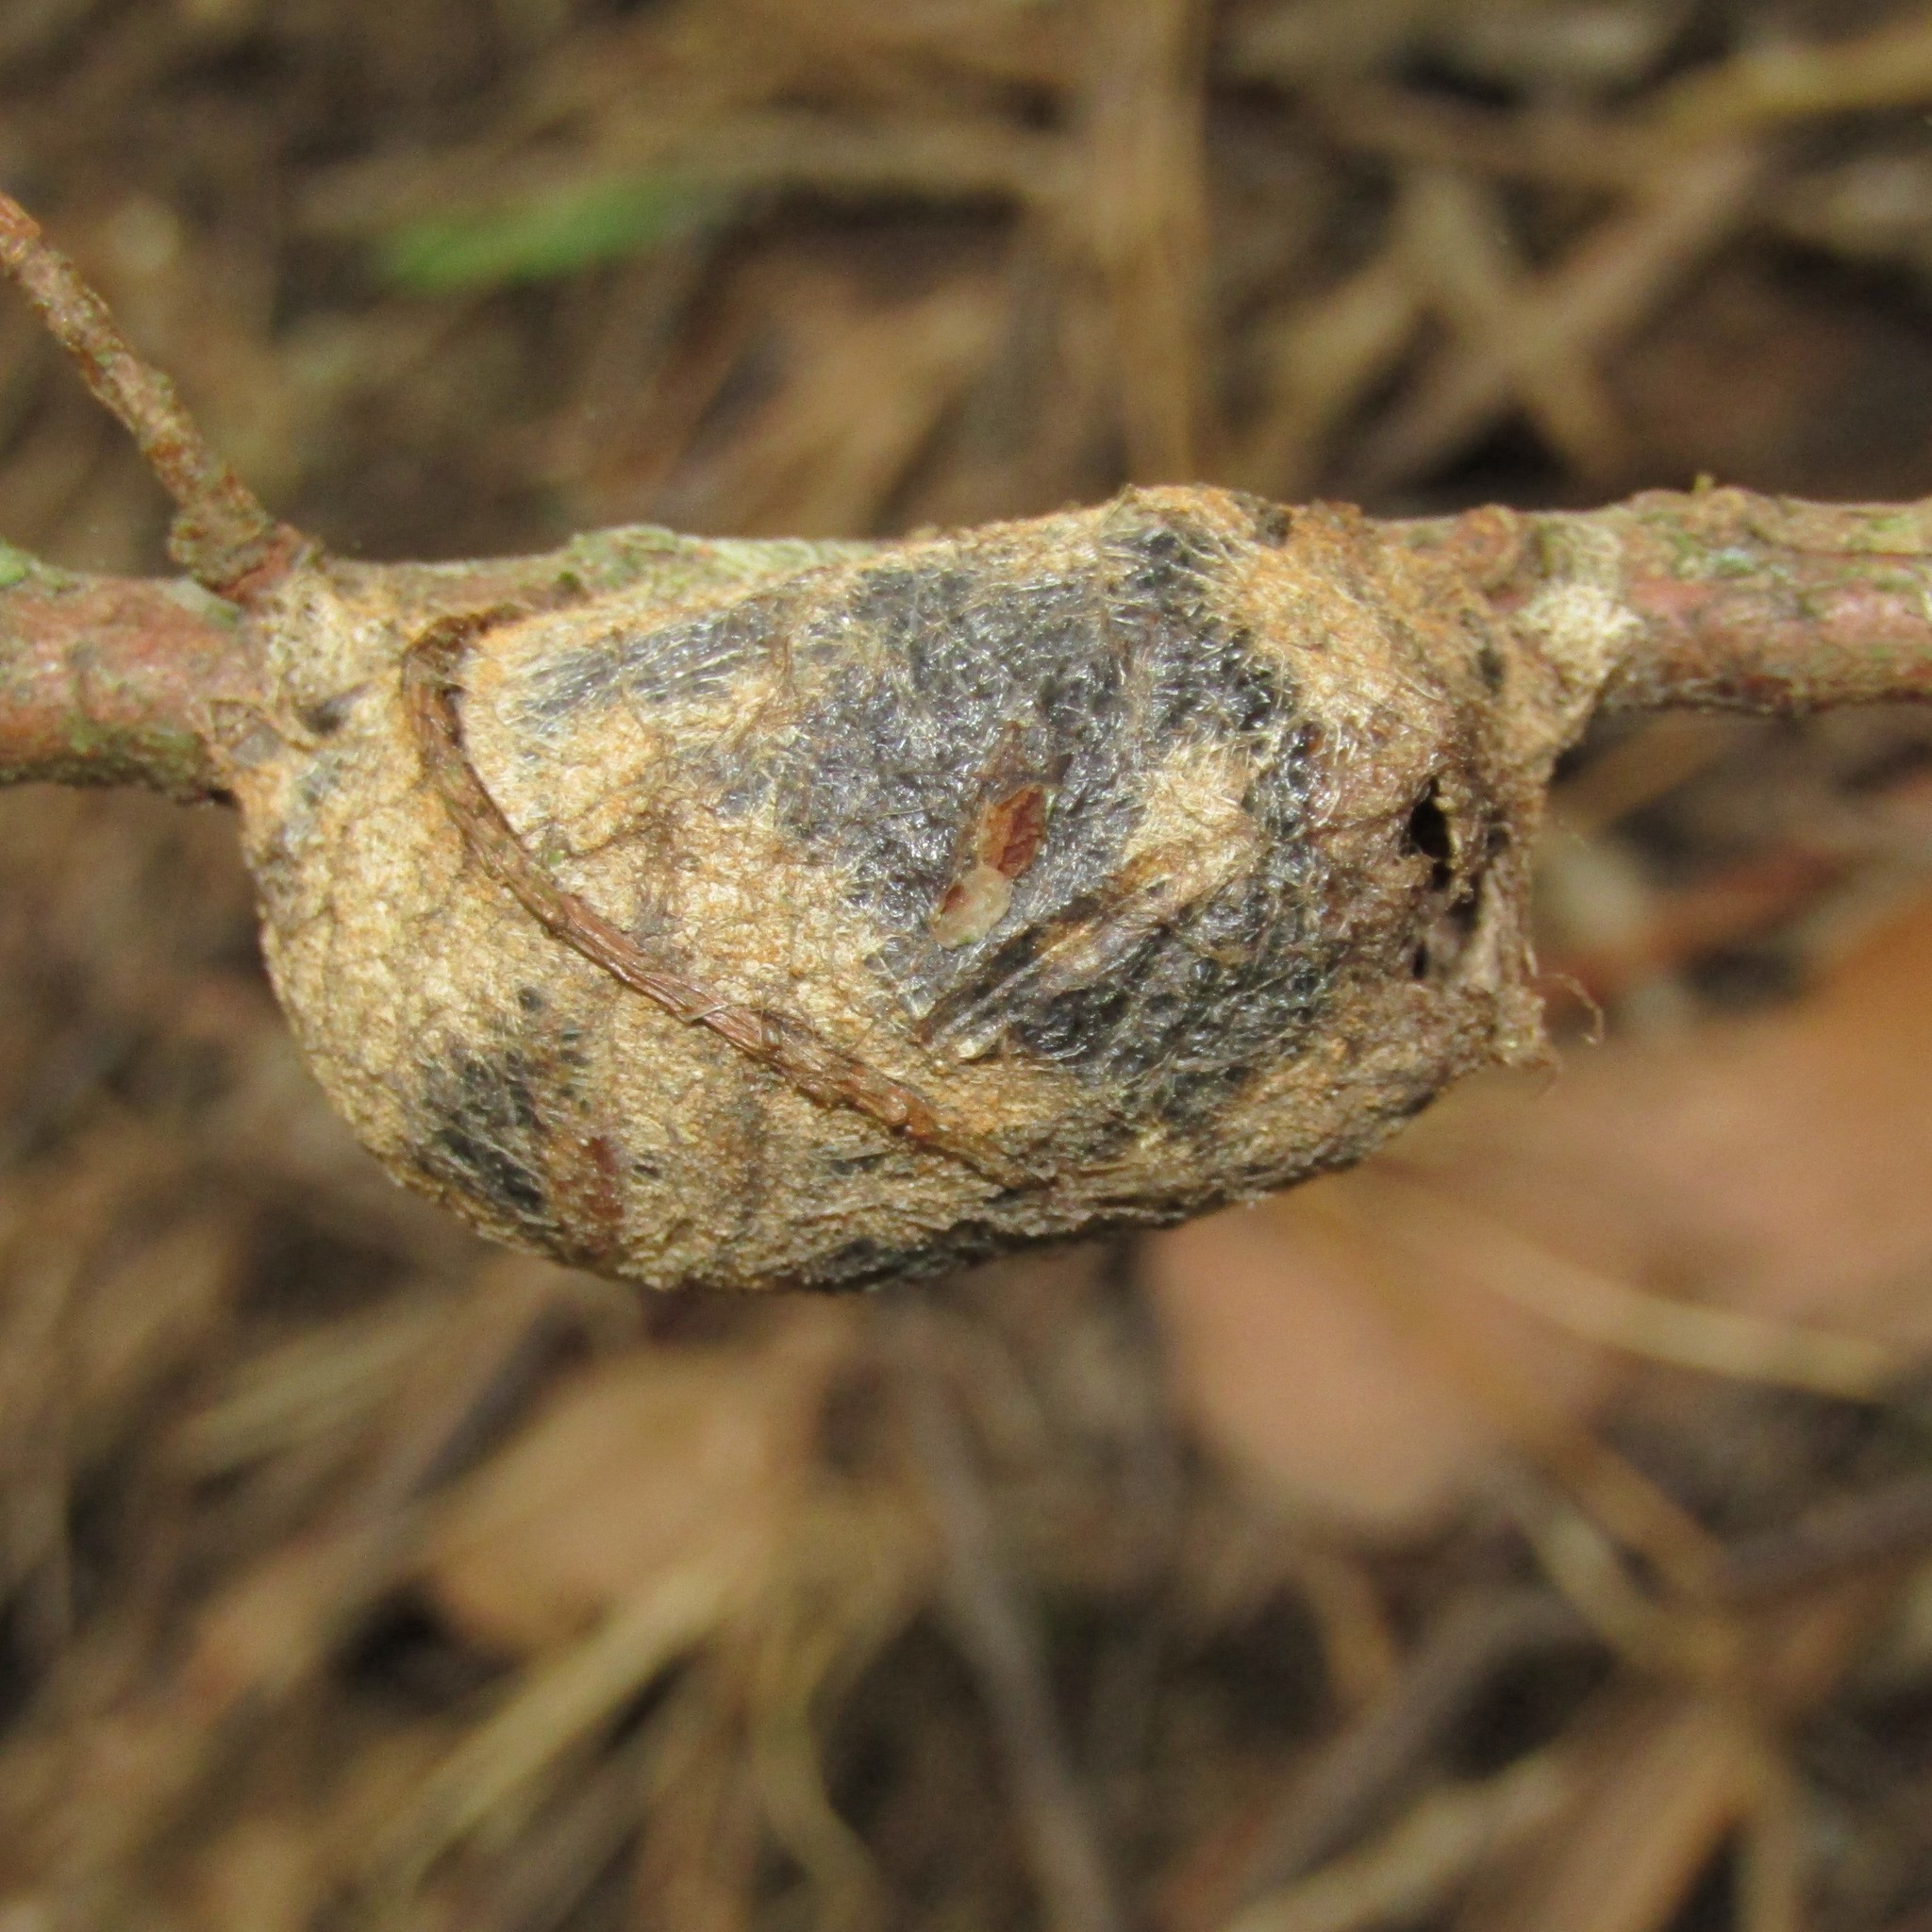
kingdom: Animalia
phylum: Arthropoda
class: Insecta
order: Lepidoptera
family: Saturniidae
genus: Opodiphthera
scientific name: Opodiphthera
